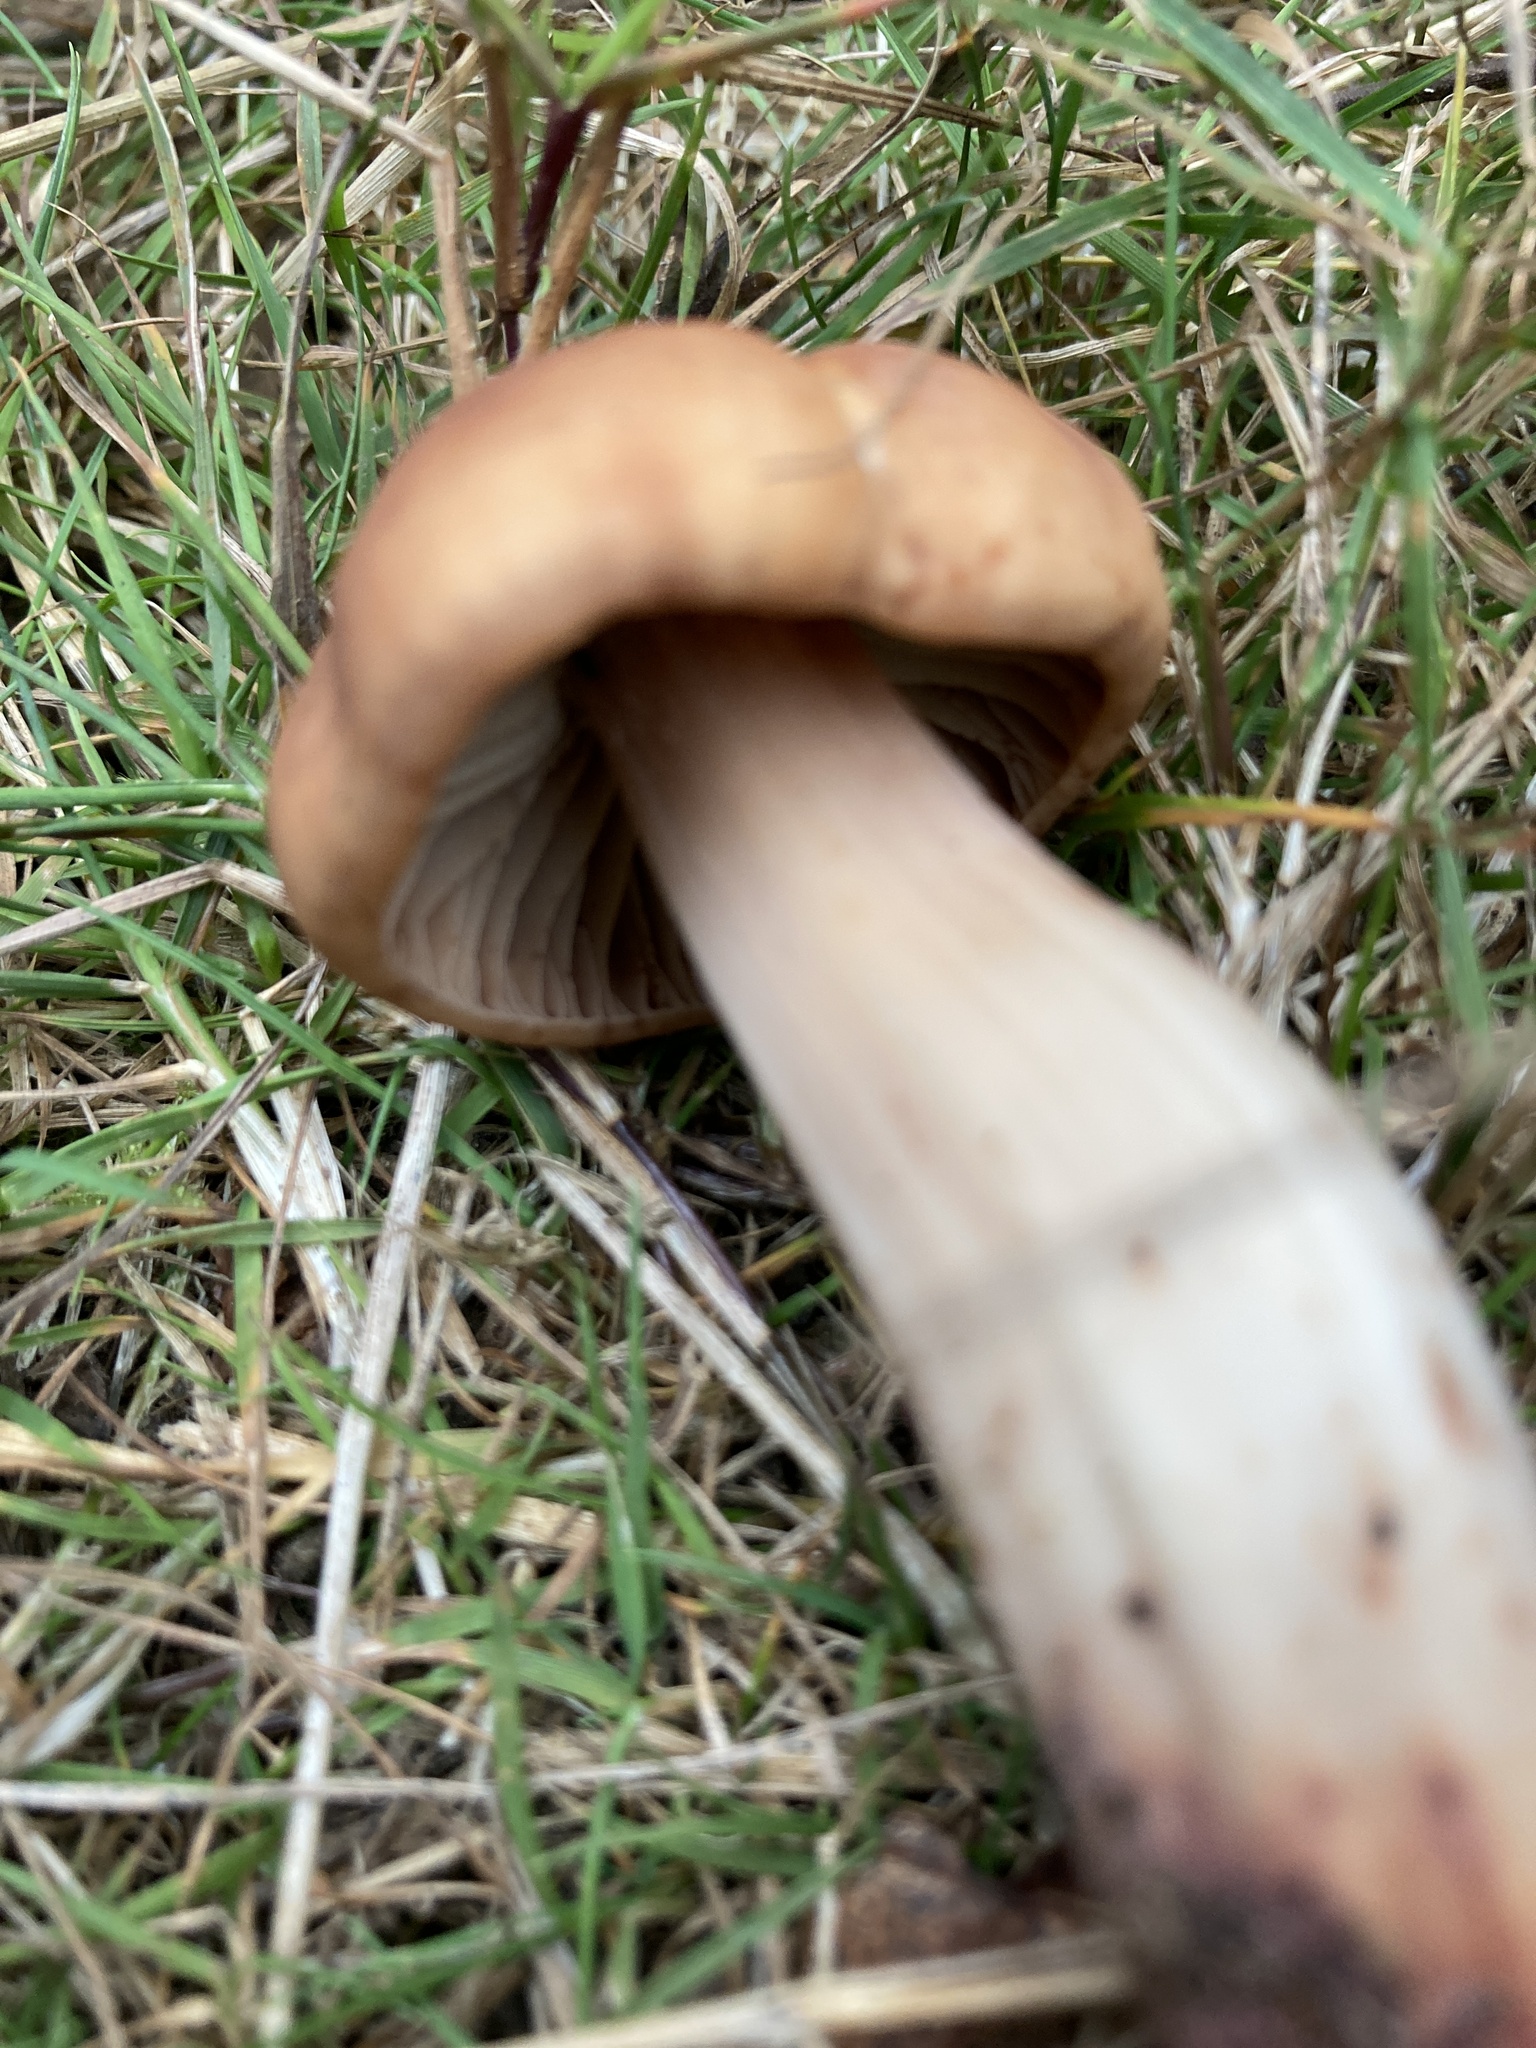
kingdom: Fungi
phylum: Basidiomycota
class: Agaricomycetes
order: Agaricales
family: Omphalotaceae
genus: Gymnopus
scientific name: Gymnopus fusipes
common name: Spindle shank
